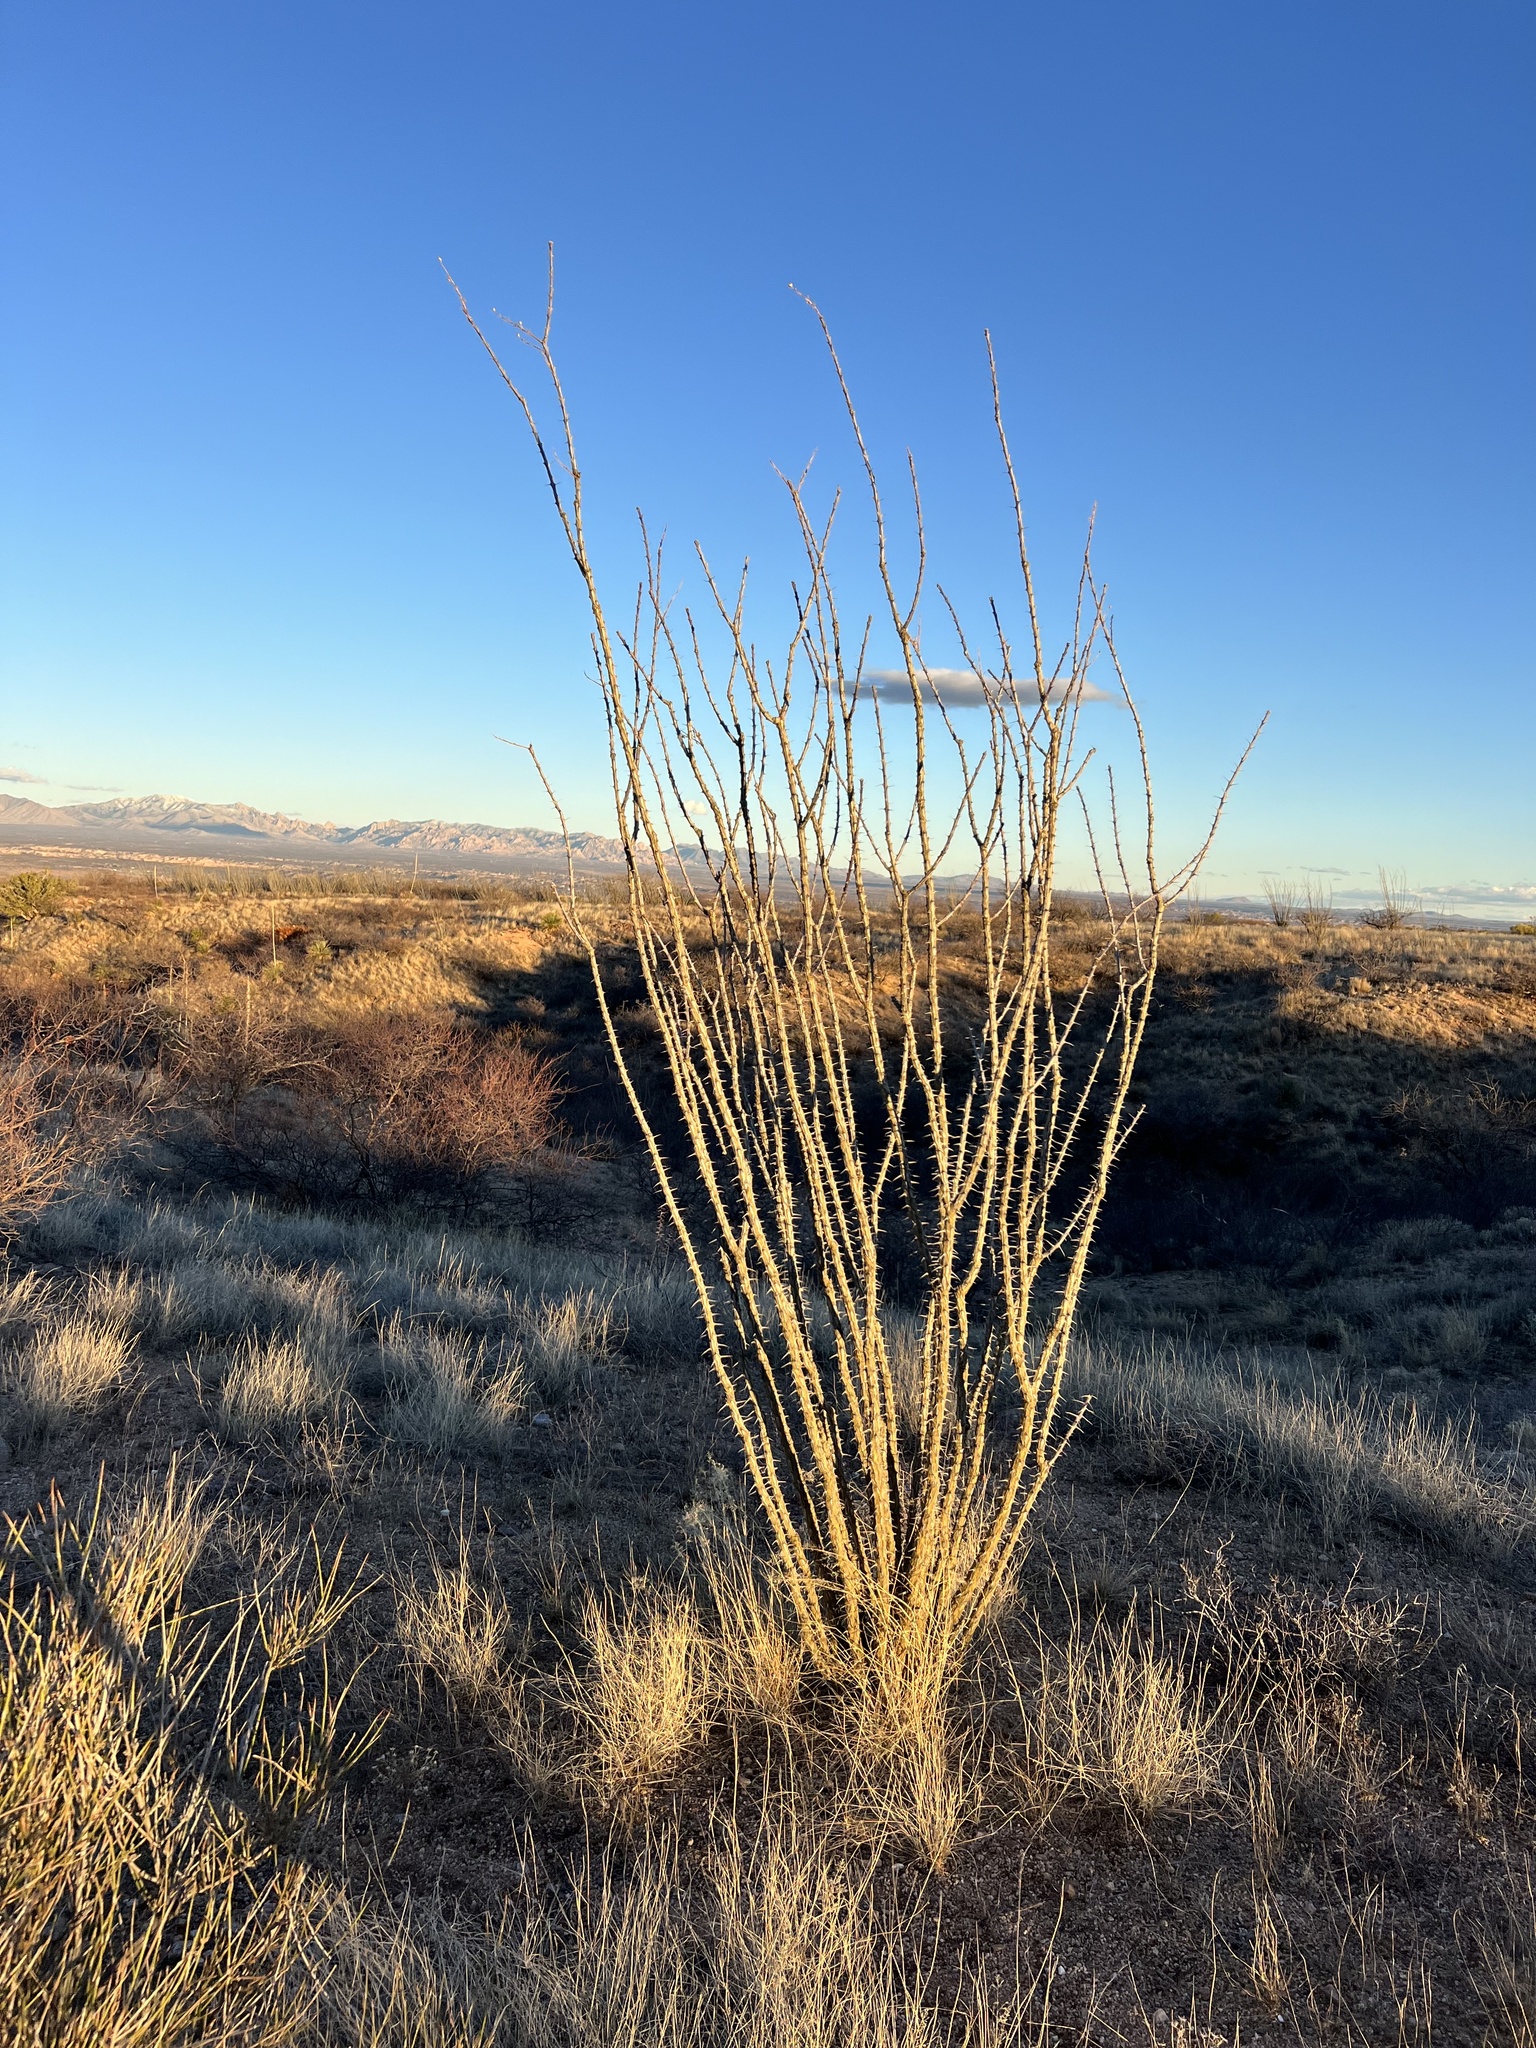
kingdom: Plantae
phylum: Tracheophyta
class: Magnoliopsida
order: Ericales
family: Fouquieriaceae
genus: Fouquieria
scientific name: Fouquieria splendens
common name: Vine-cactus
